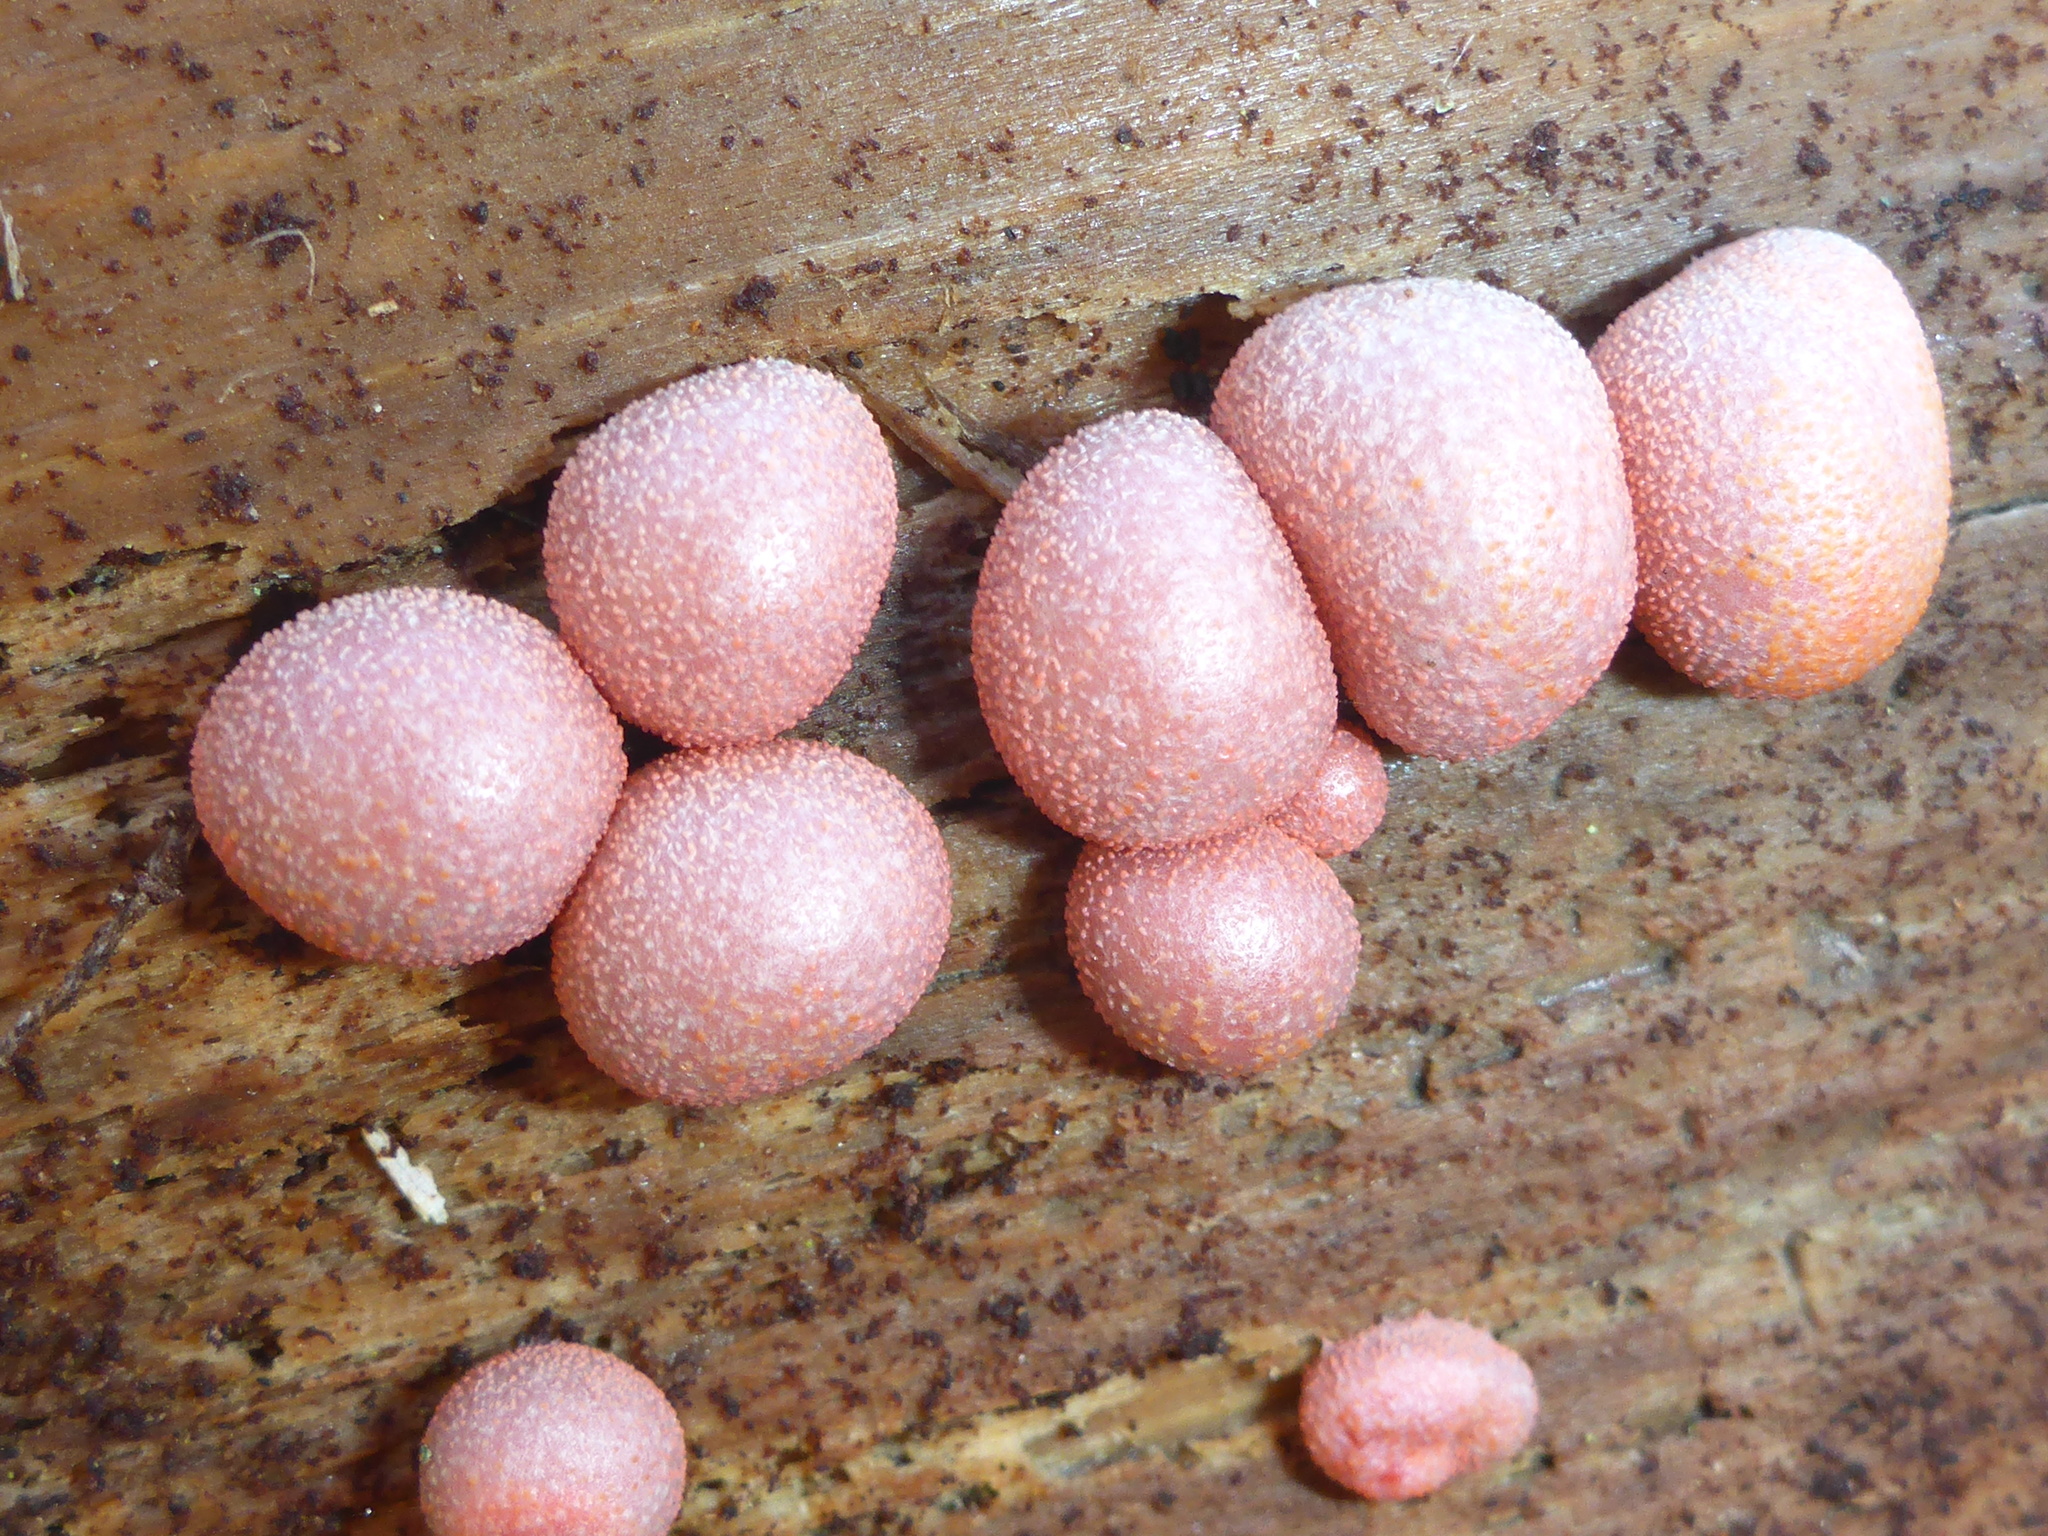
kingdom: Protozoa
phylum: Mycetozoa
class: Myxomycetes
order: Cribrariales
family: Tubiferaceae
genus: Lycogala
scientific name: Lycogala epidendrum
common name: Wolf's milk
